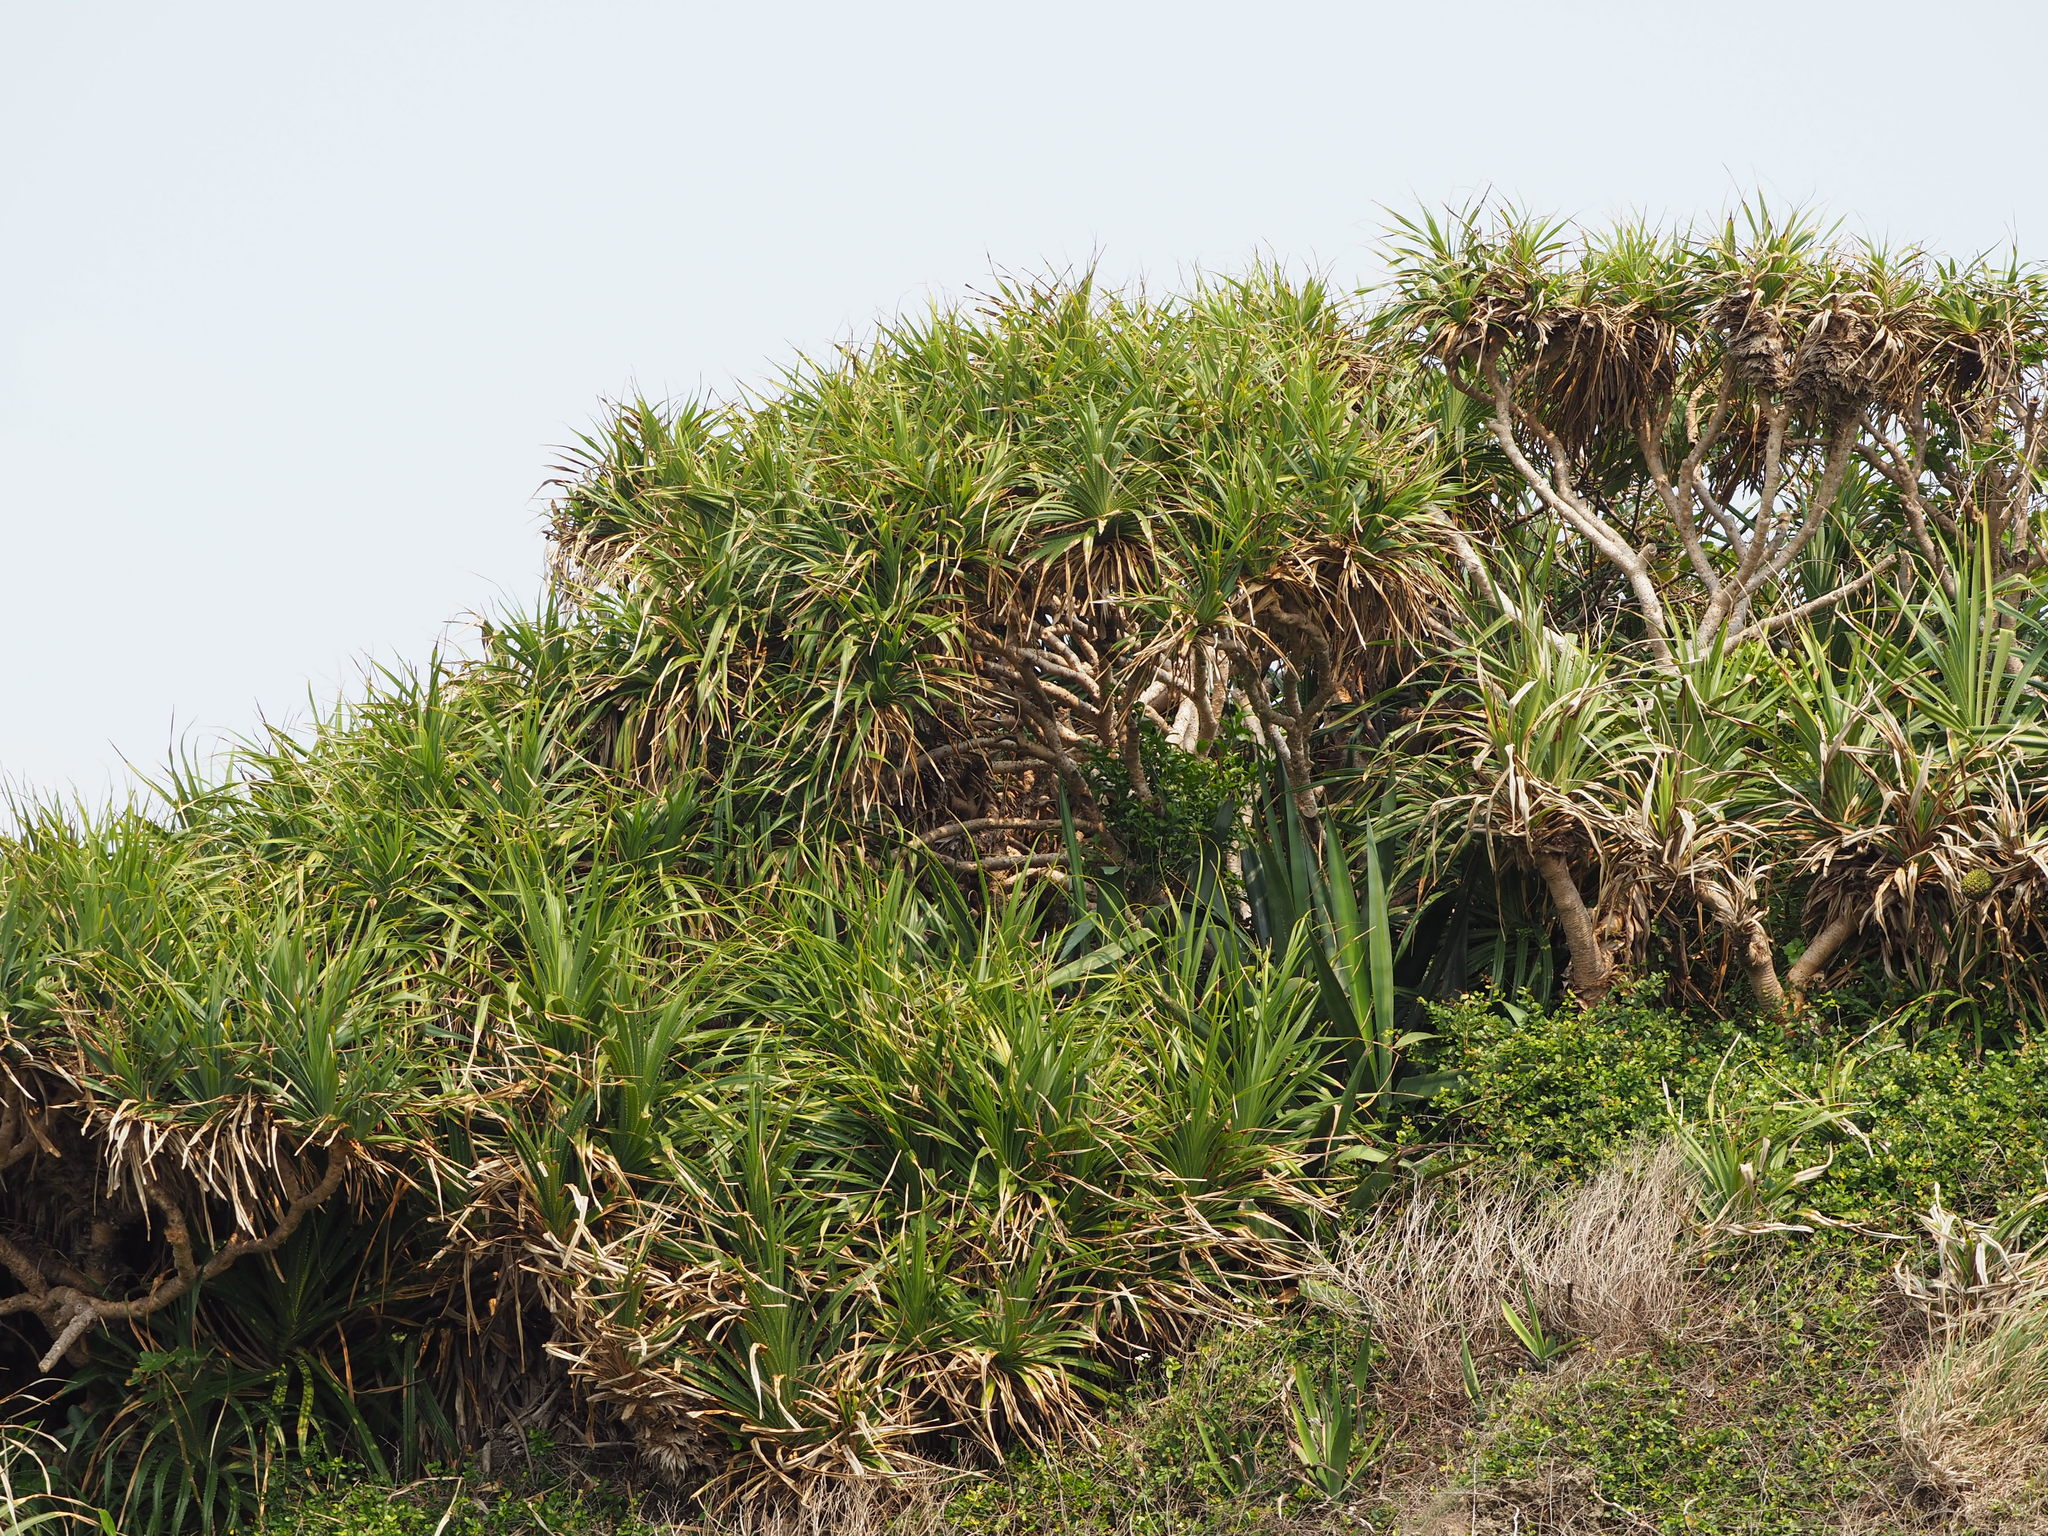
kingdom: Plantae
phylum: Tracheophyta
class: Liliopsida
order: Pandanales
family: Pandanaceae
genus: Pandanus
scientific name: Pandanus odorifer
